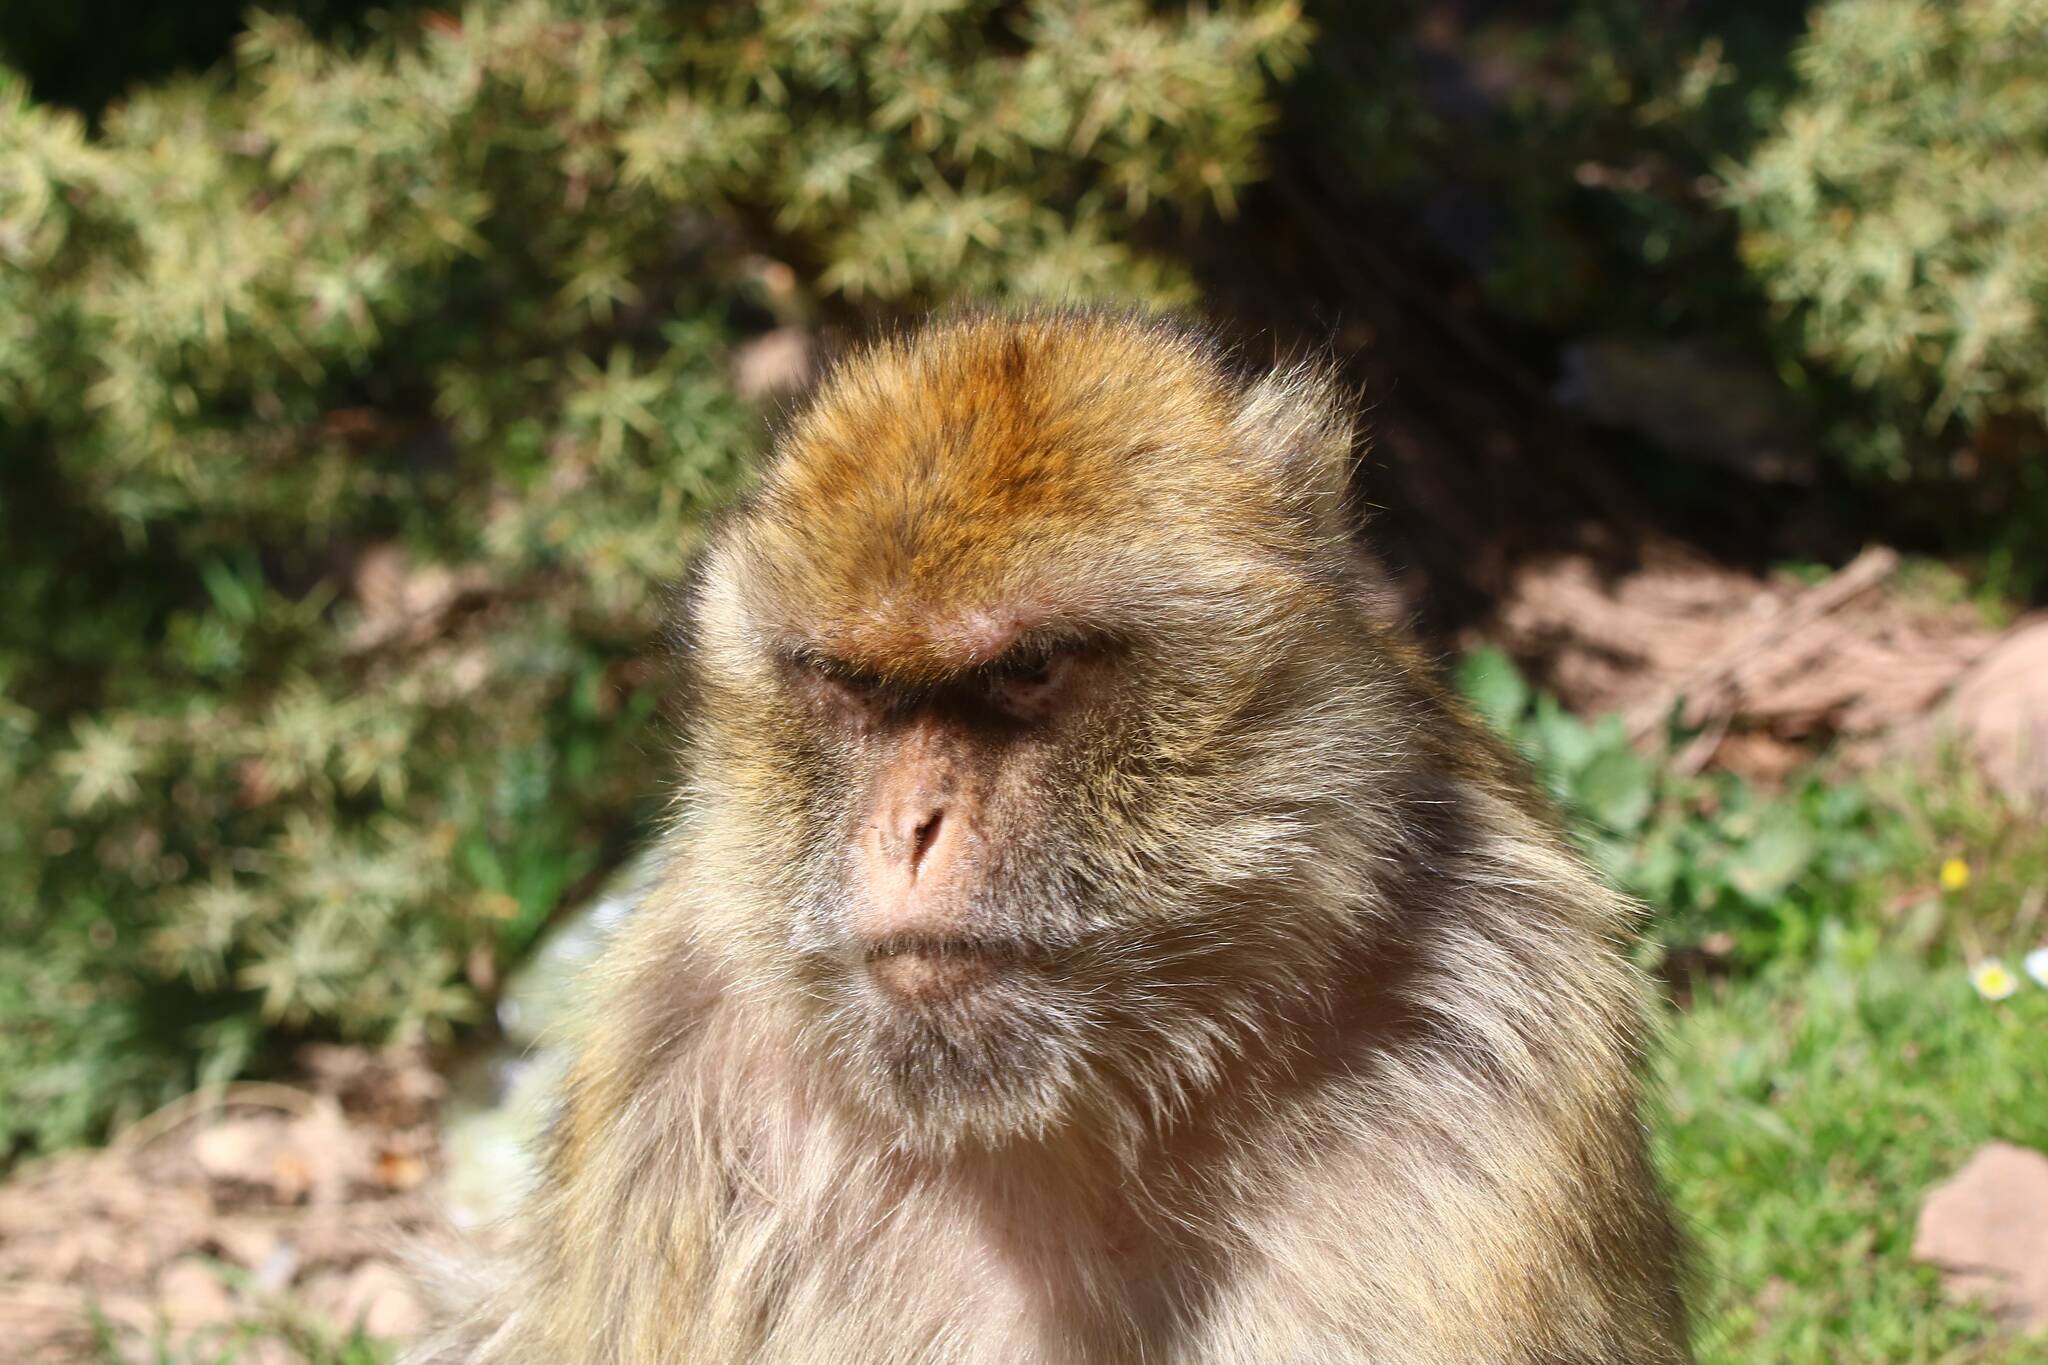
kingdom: Animalia
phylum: Chordata
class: Mammalia
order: Primates
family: Cercopithecidae
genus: Macaca
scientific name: Macaca sylvanus
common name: Barbary macaque
